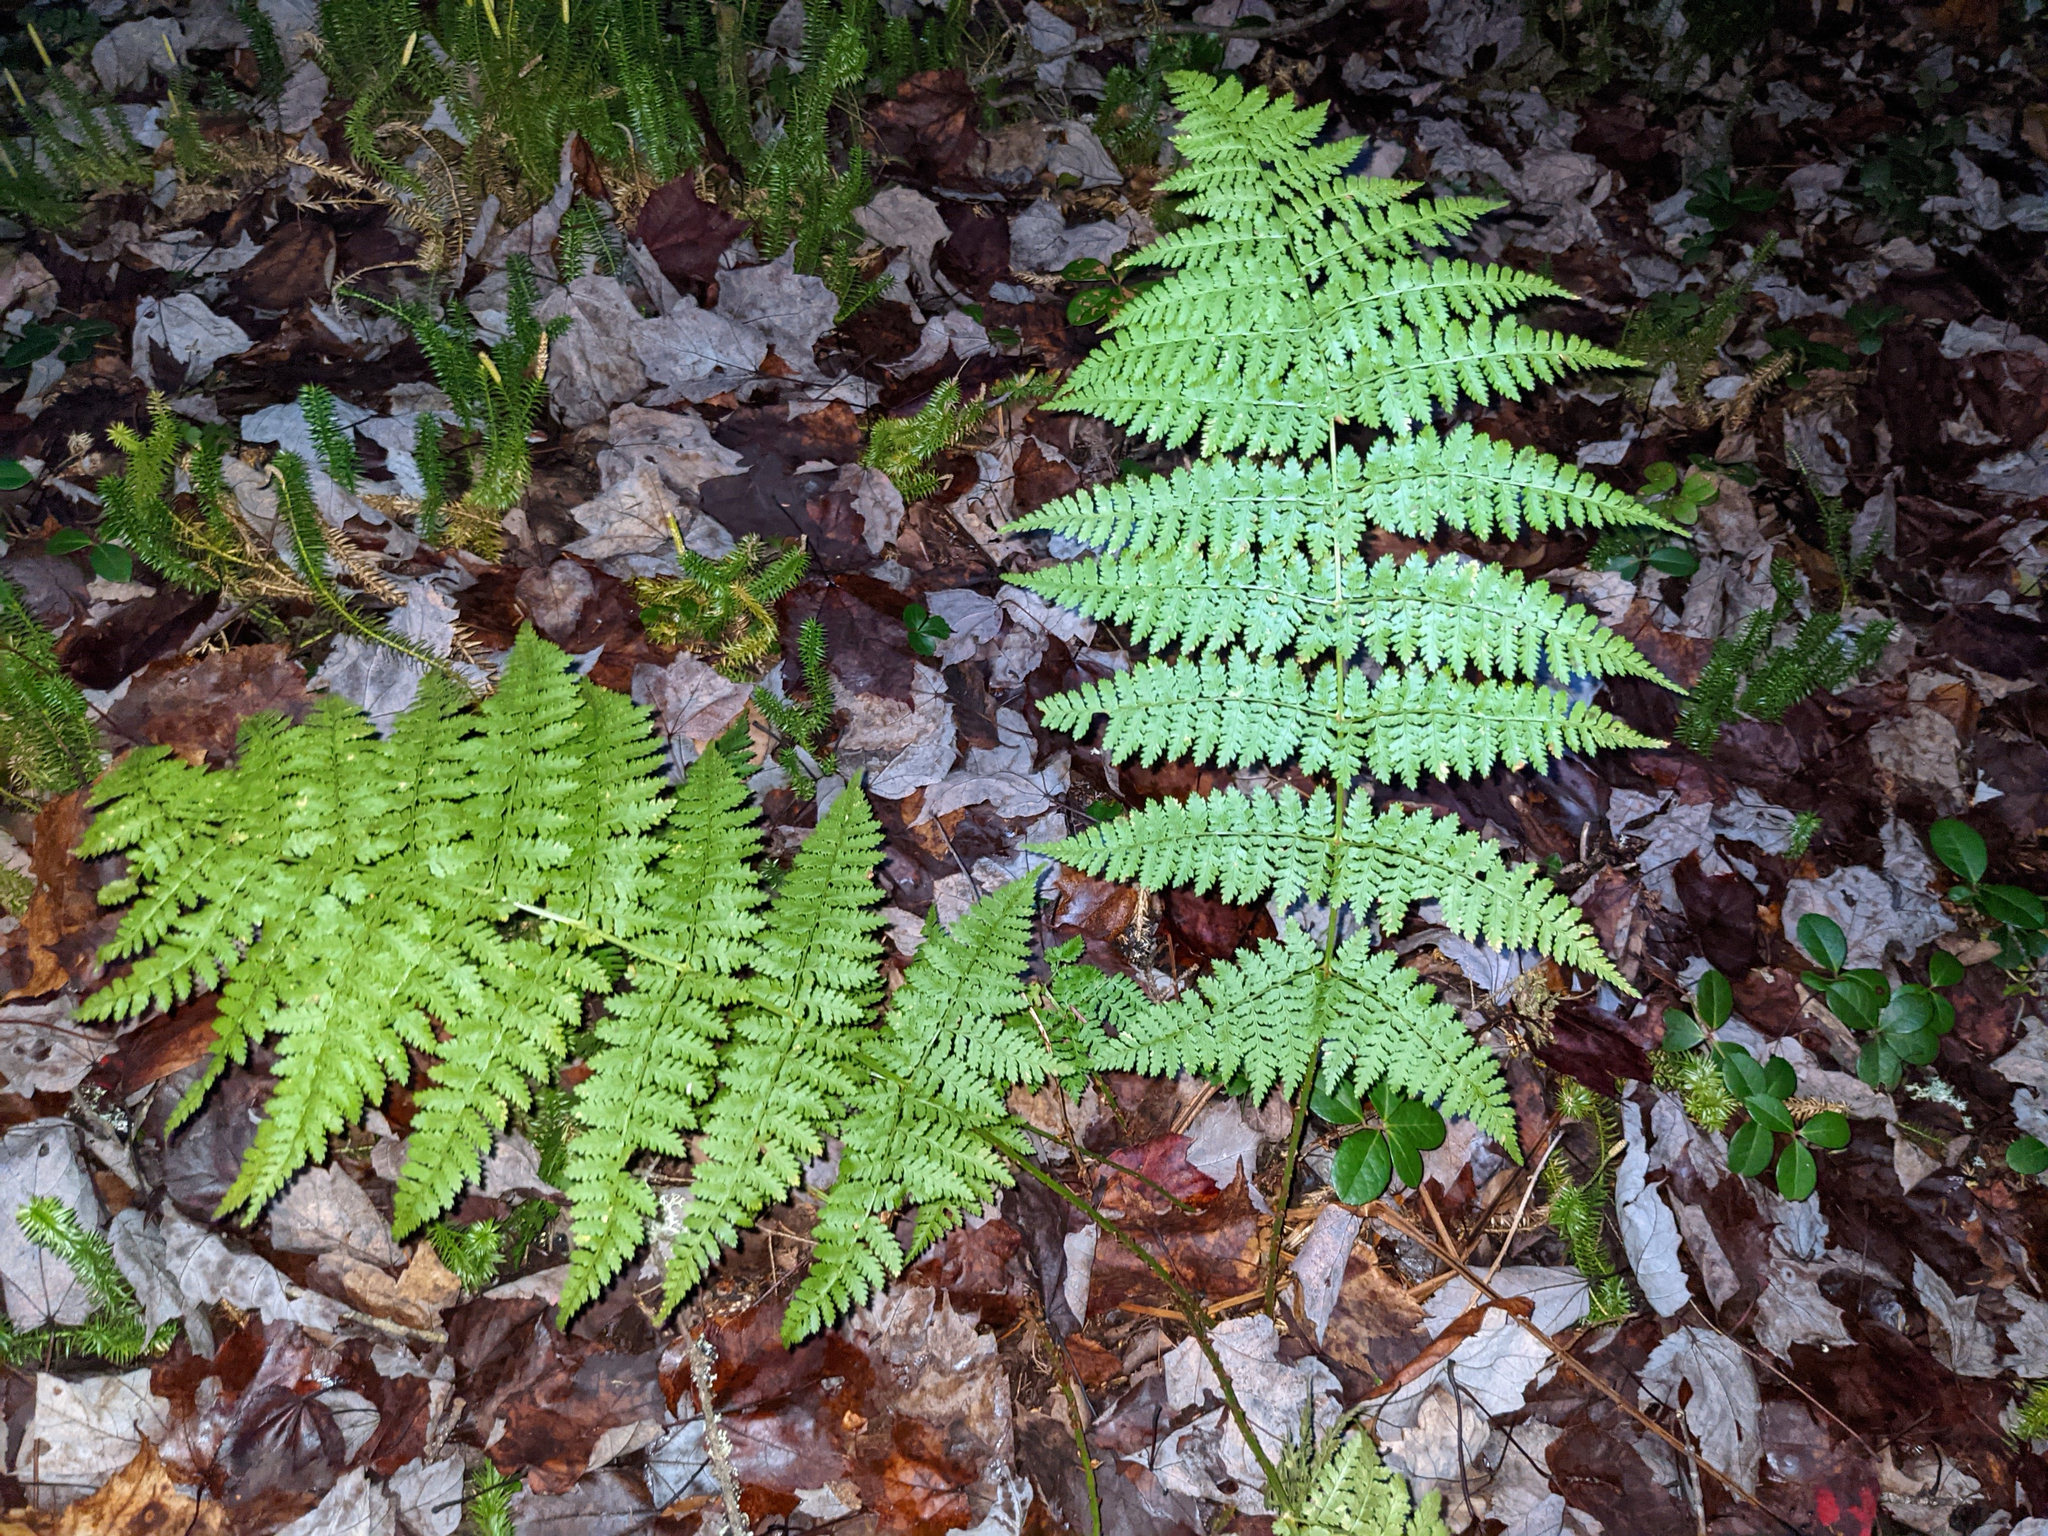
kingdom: Plantae
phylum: Tracheophyta
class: Polypodiopsida
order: Polypodiales
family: Dryopteridaceae
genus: Dryopteris
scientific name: Dryopteris intermedia
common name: Evergreen wood fern
